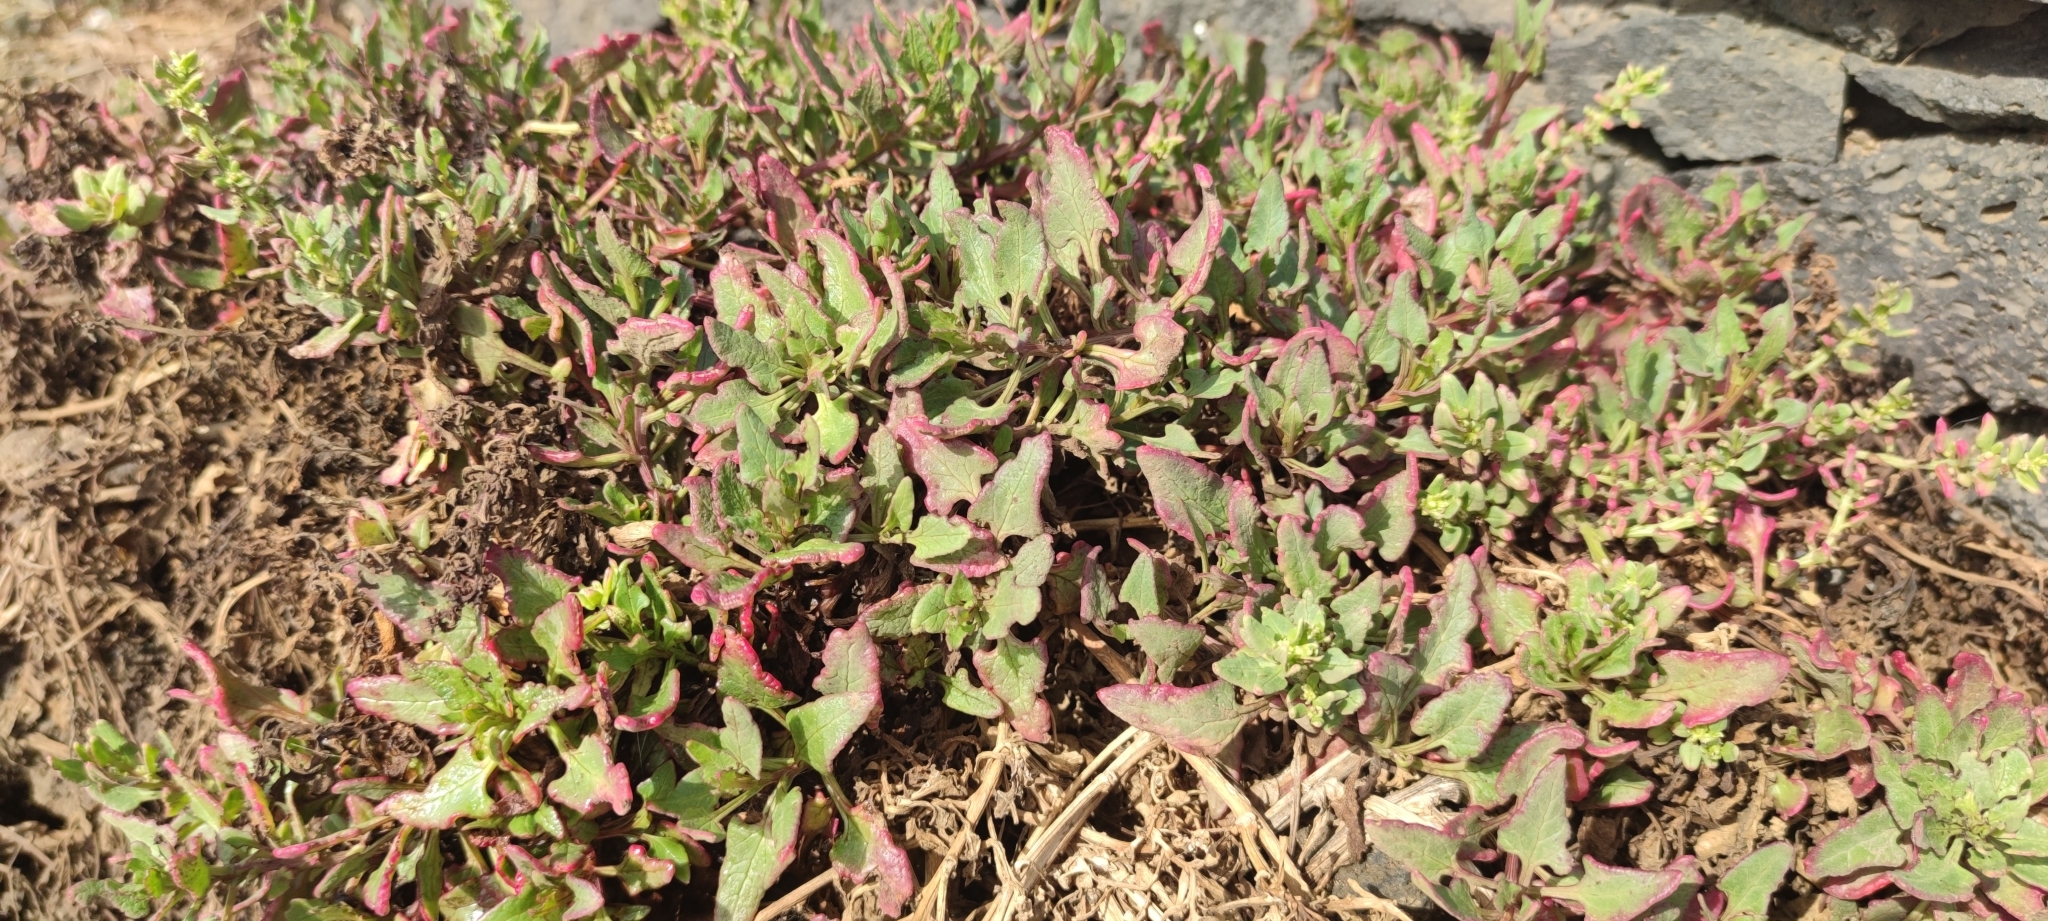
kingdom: Plantae
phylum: Tracheophyta
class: Magnoliopsida
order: Caryophyllales
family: Amaranthaceae
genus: Patellifolia
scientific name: Patellifolia procumbens
